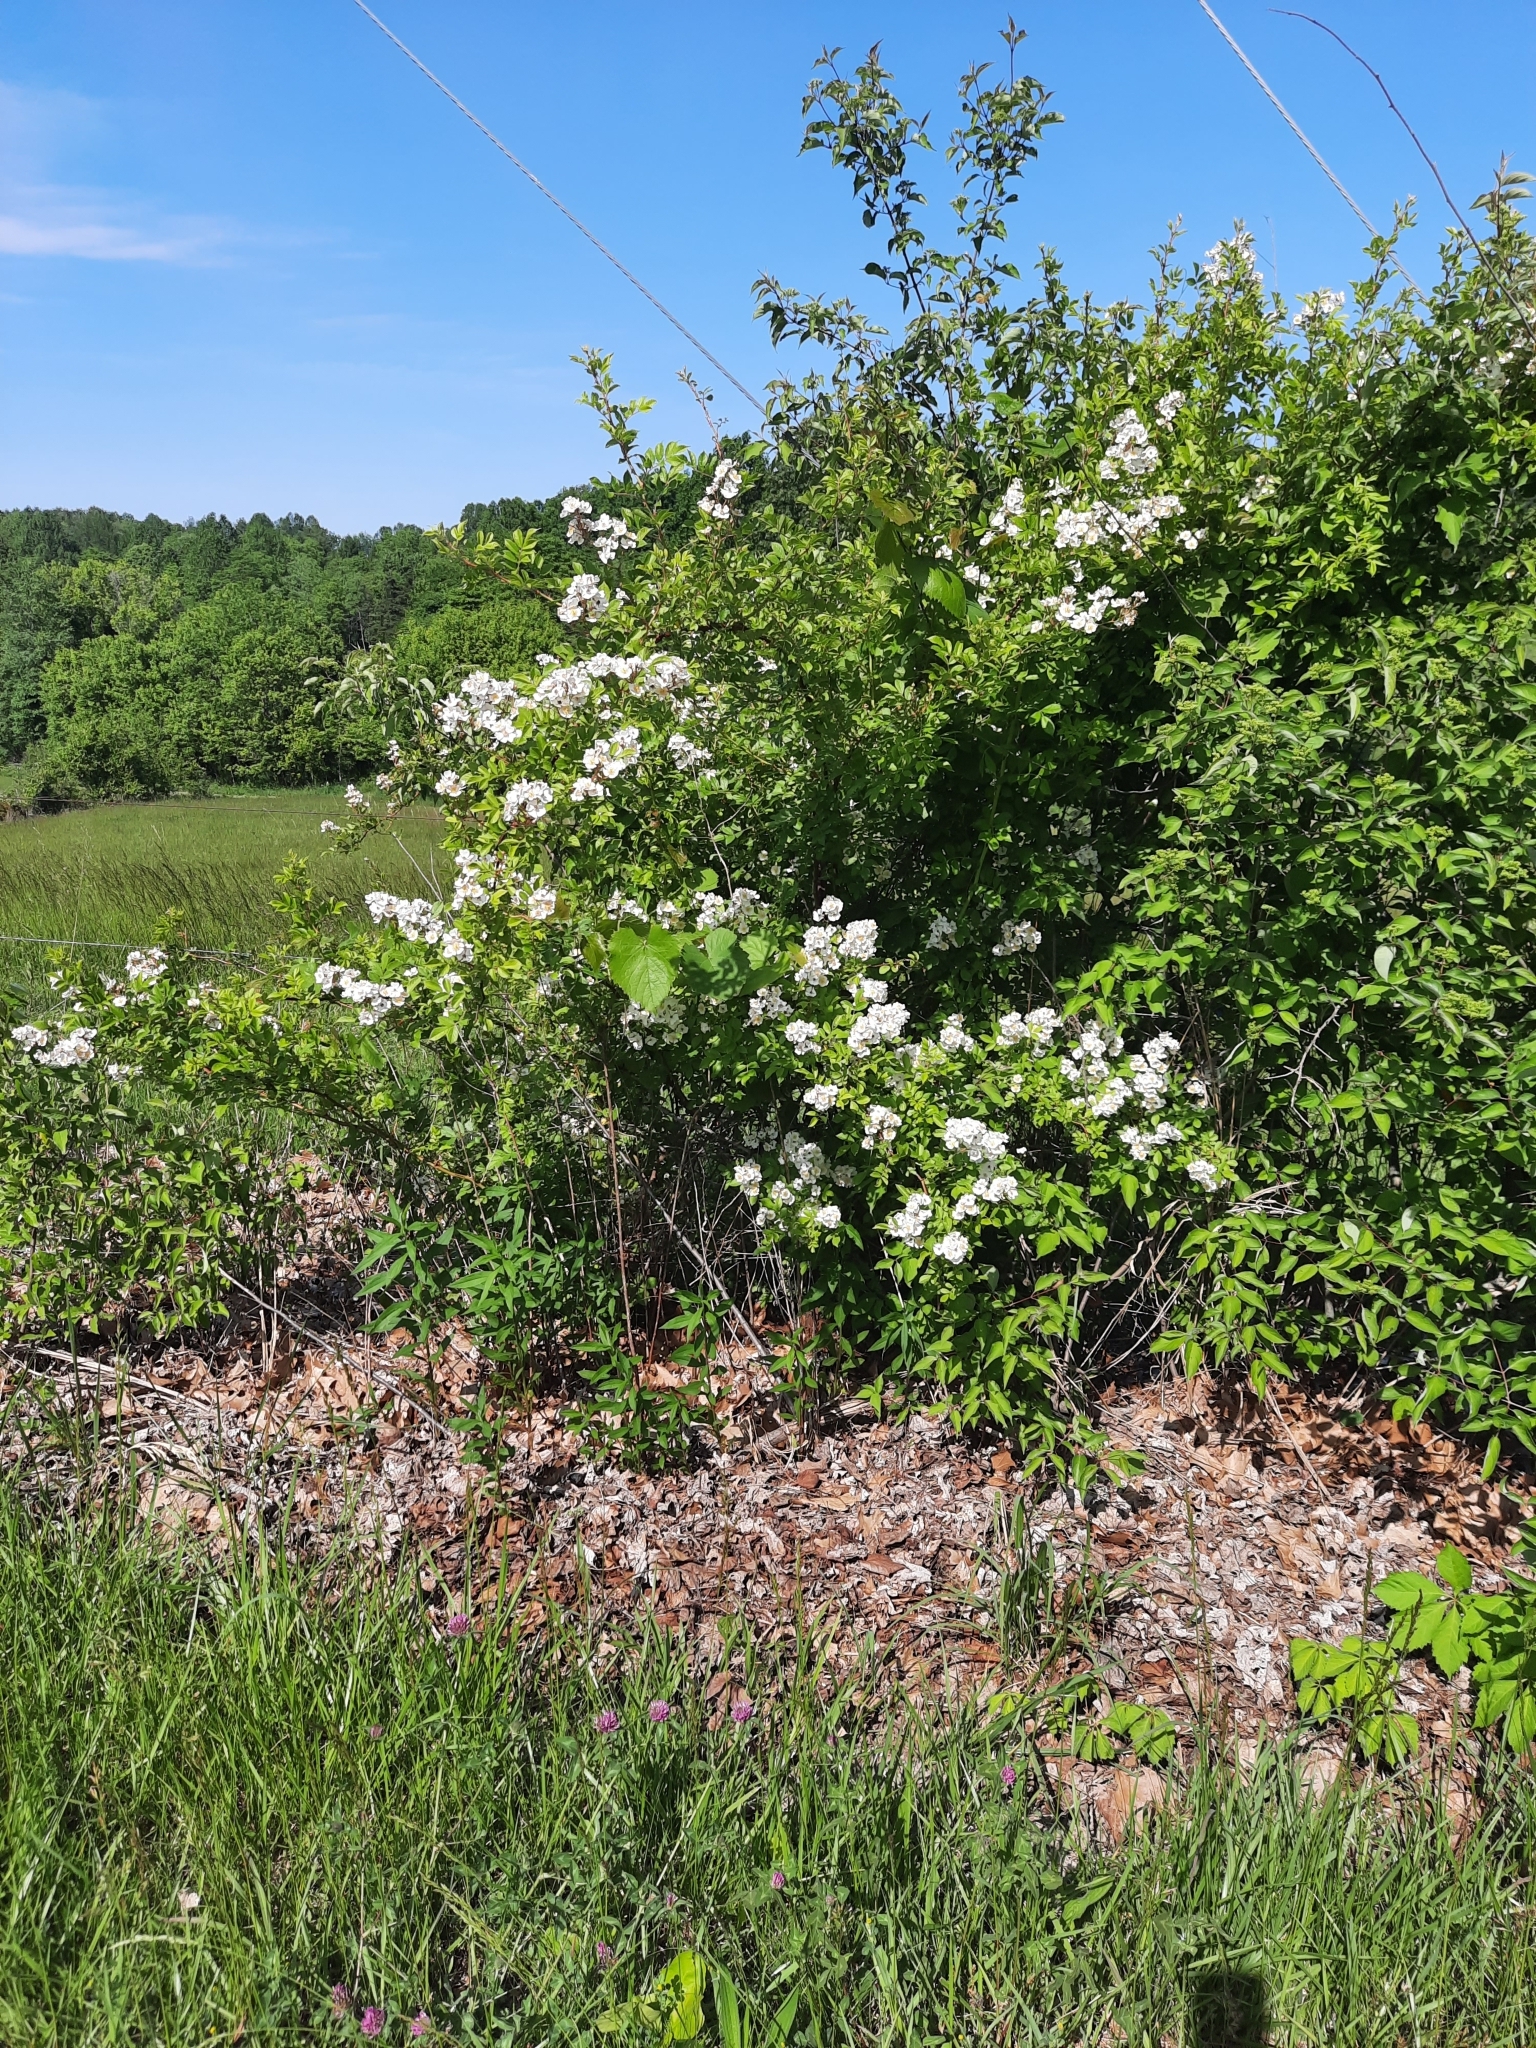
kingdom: Plantae
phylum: Tracheophyta
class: Magnoliopsida
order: Rosales
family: Rosaceae
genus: Rosa
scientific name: Rosa multiflora
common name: Multiflora rose
